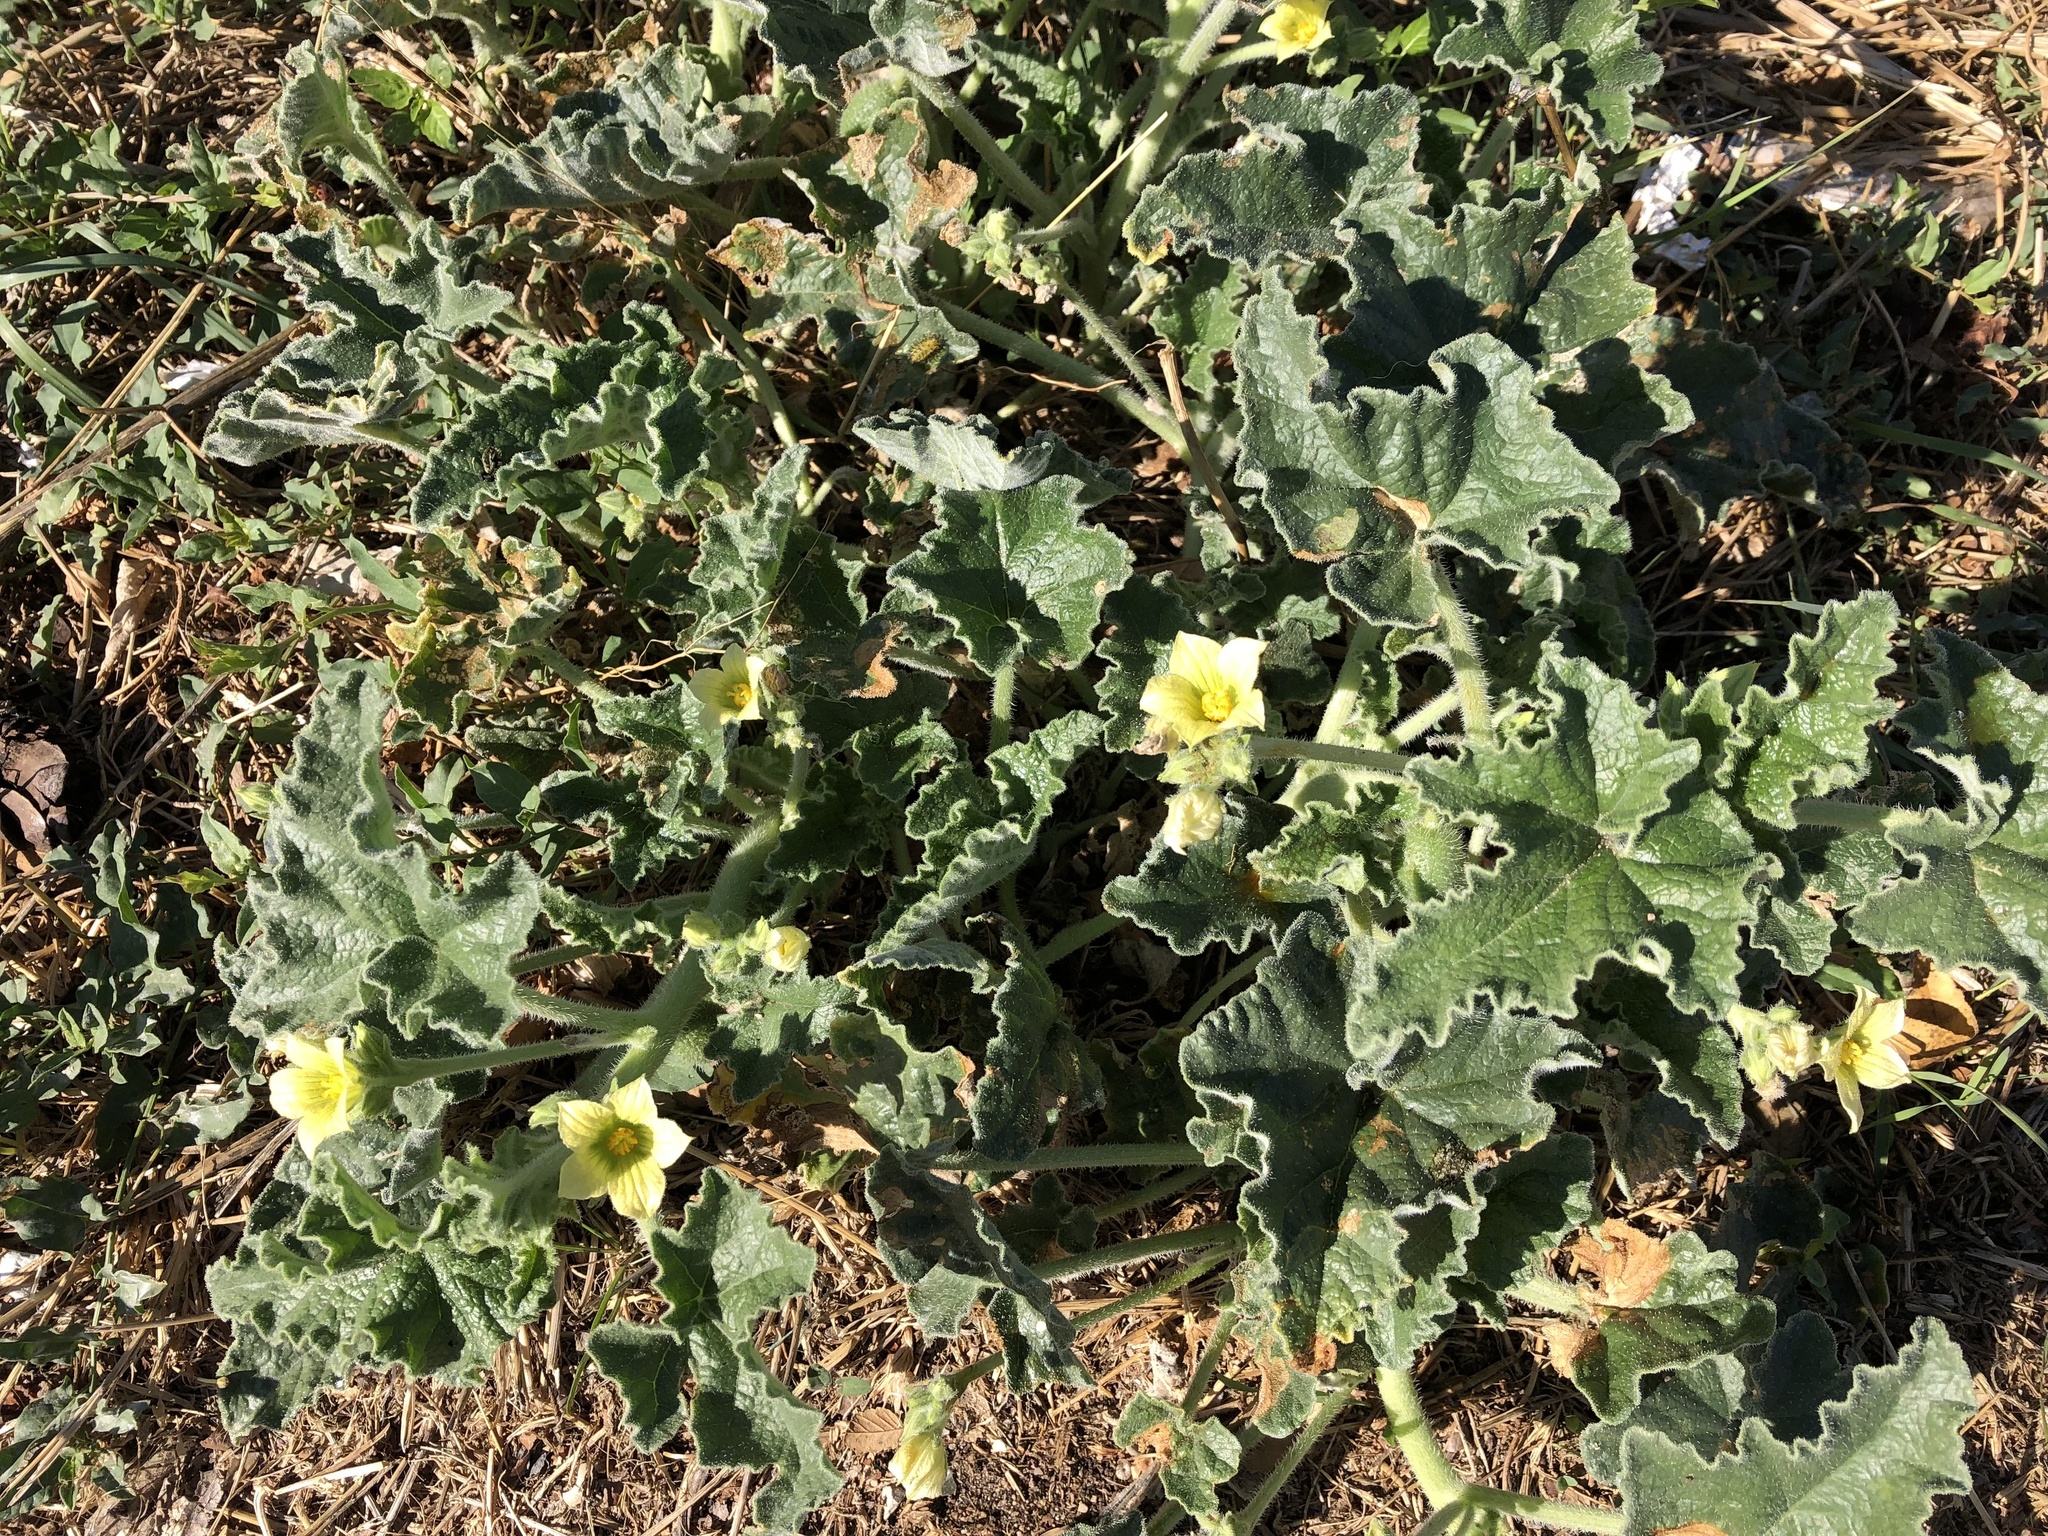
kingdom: Plantae
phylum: Tracheophyta
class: Magnoliopsida
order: Cucurbitales
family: Cucurbitaceae
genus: Ecballium
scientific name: Ecballium elaterium
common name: Squirting cucumber
